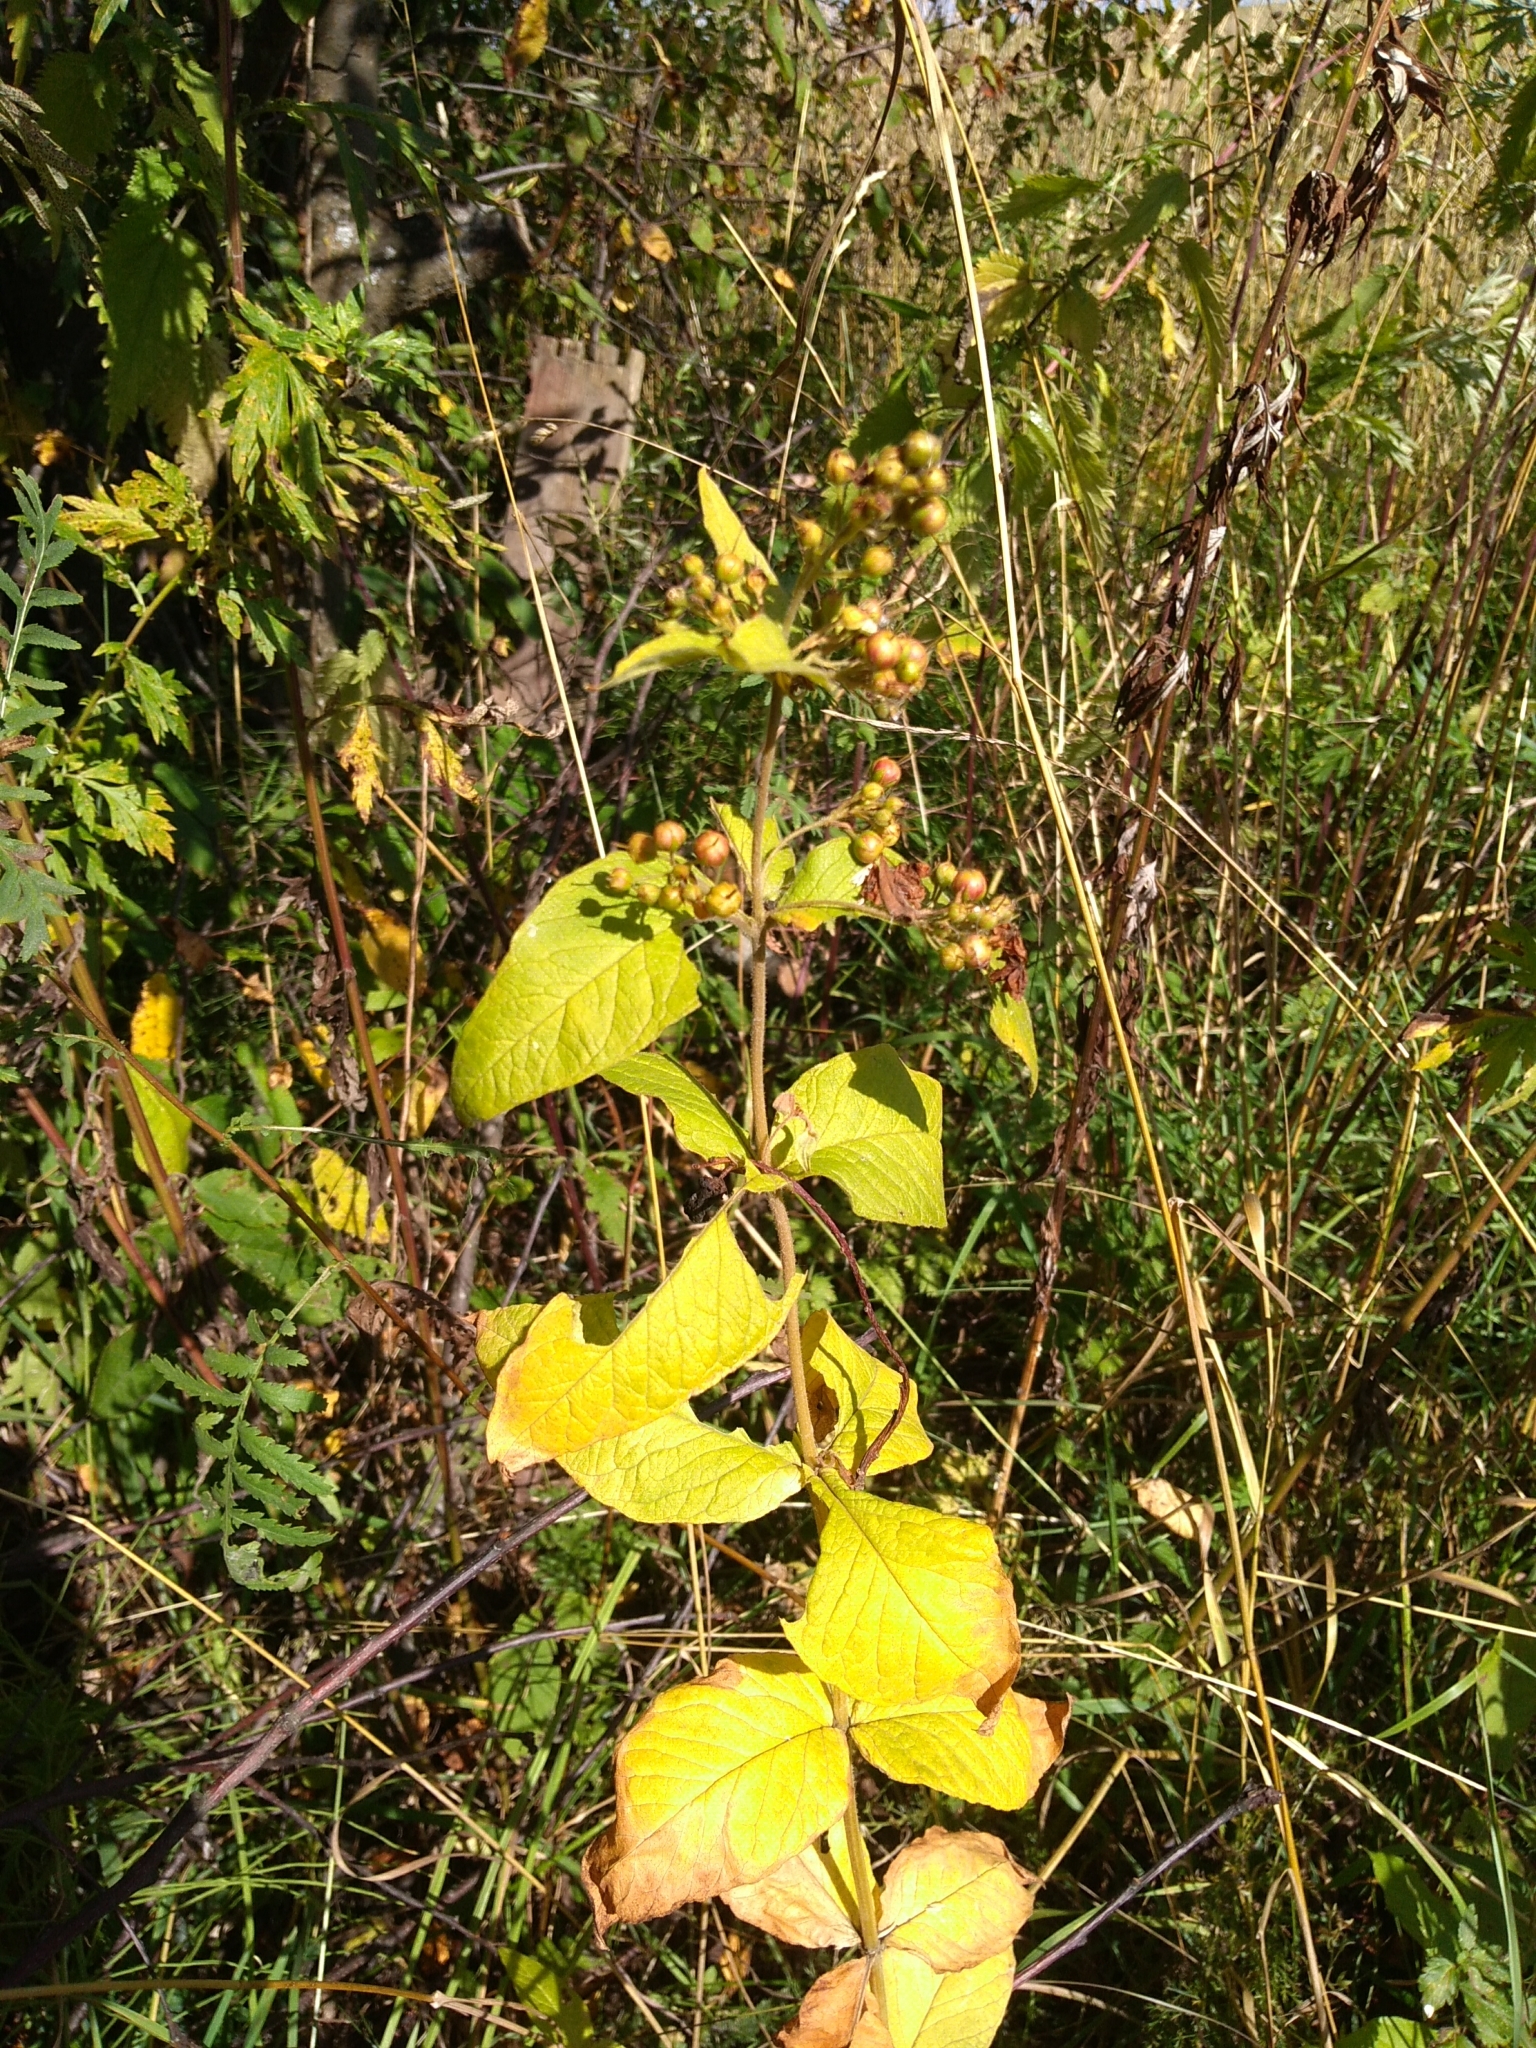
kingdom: Plantae
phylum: Tracheophyta
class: Magnoliopsida
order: Ericales
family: Primulaceae
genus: Lysimachia
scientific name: Lysimachia vulgaris
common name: Yellow loosestrife
